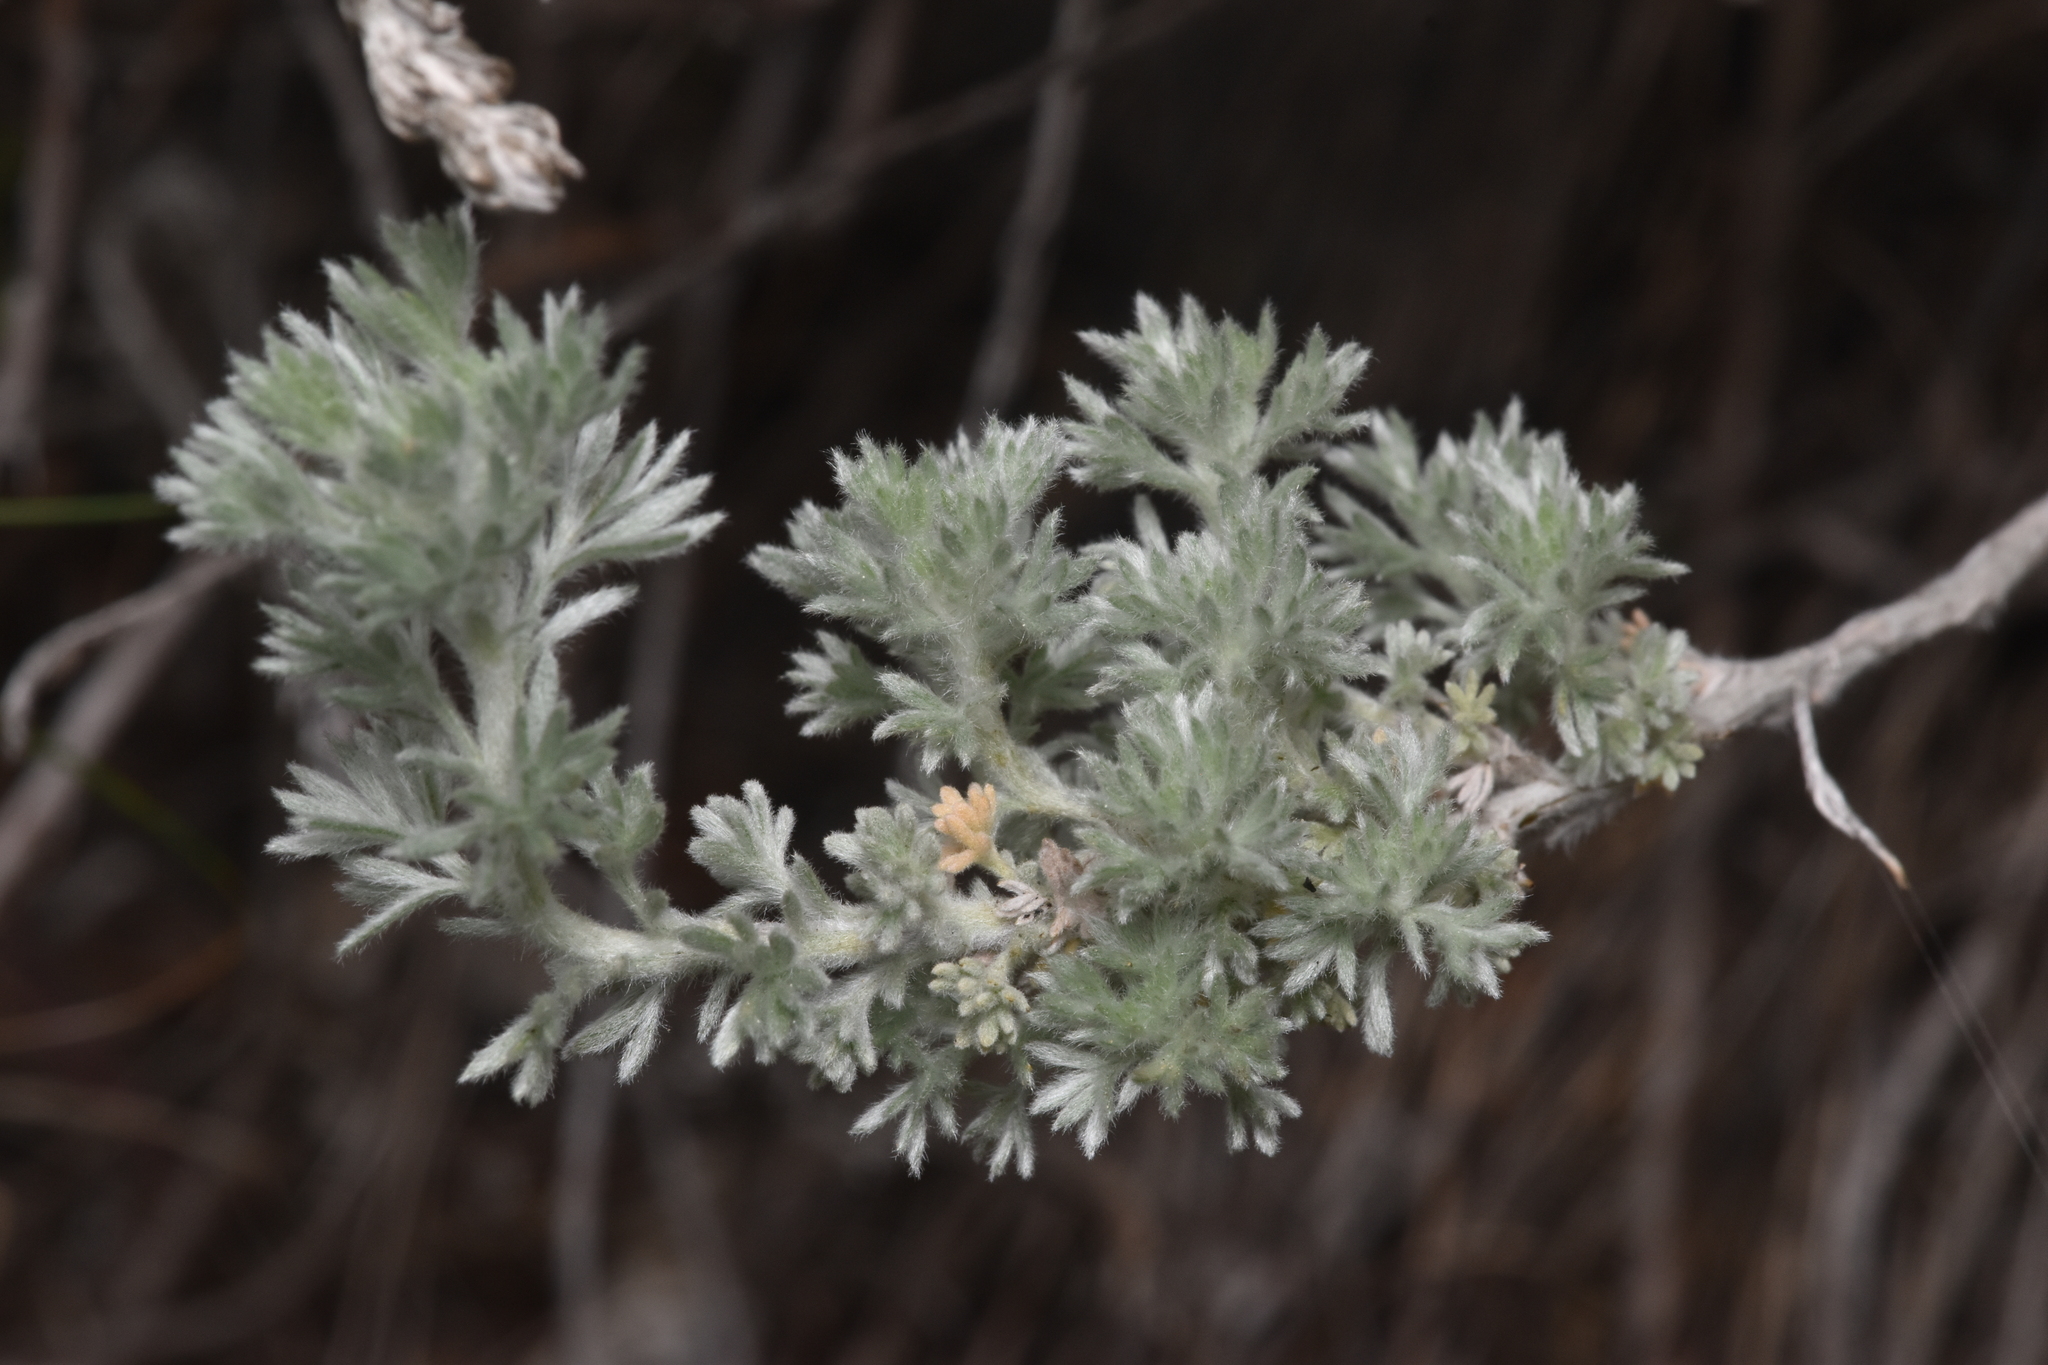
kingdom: Plantae
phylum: Tracheophyta
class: Magnoliopsida
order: Asterales
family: Asteraceae
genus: Artemisia
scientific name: Artemisia frigida
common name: Prairie sagewort
